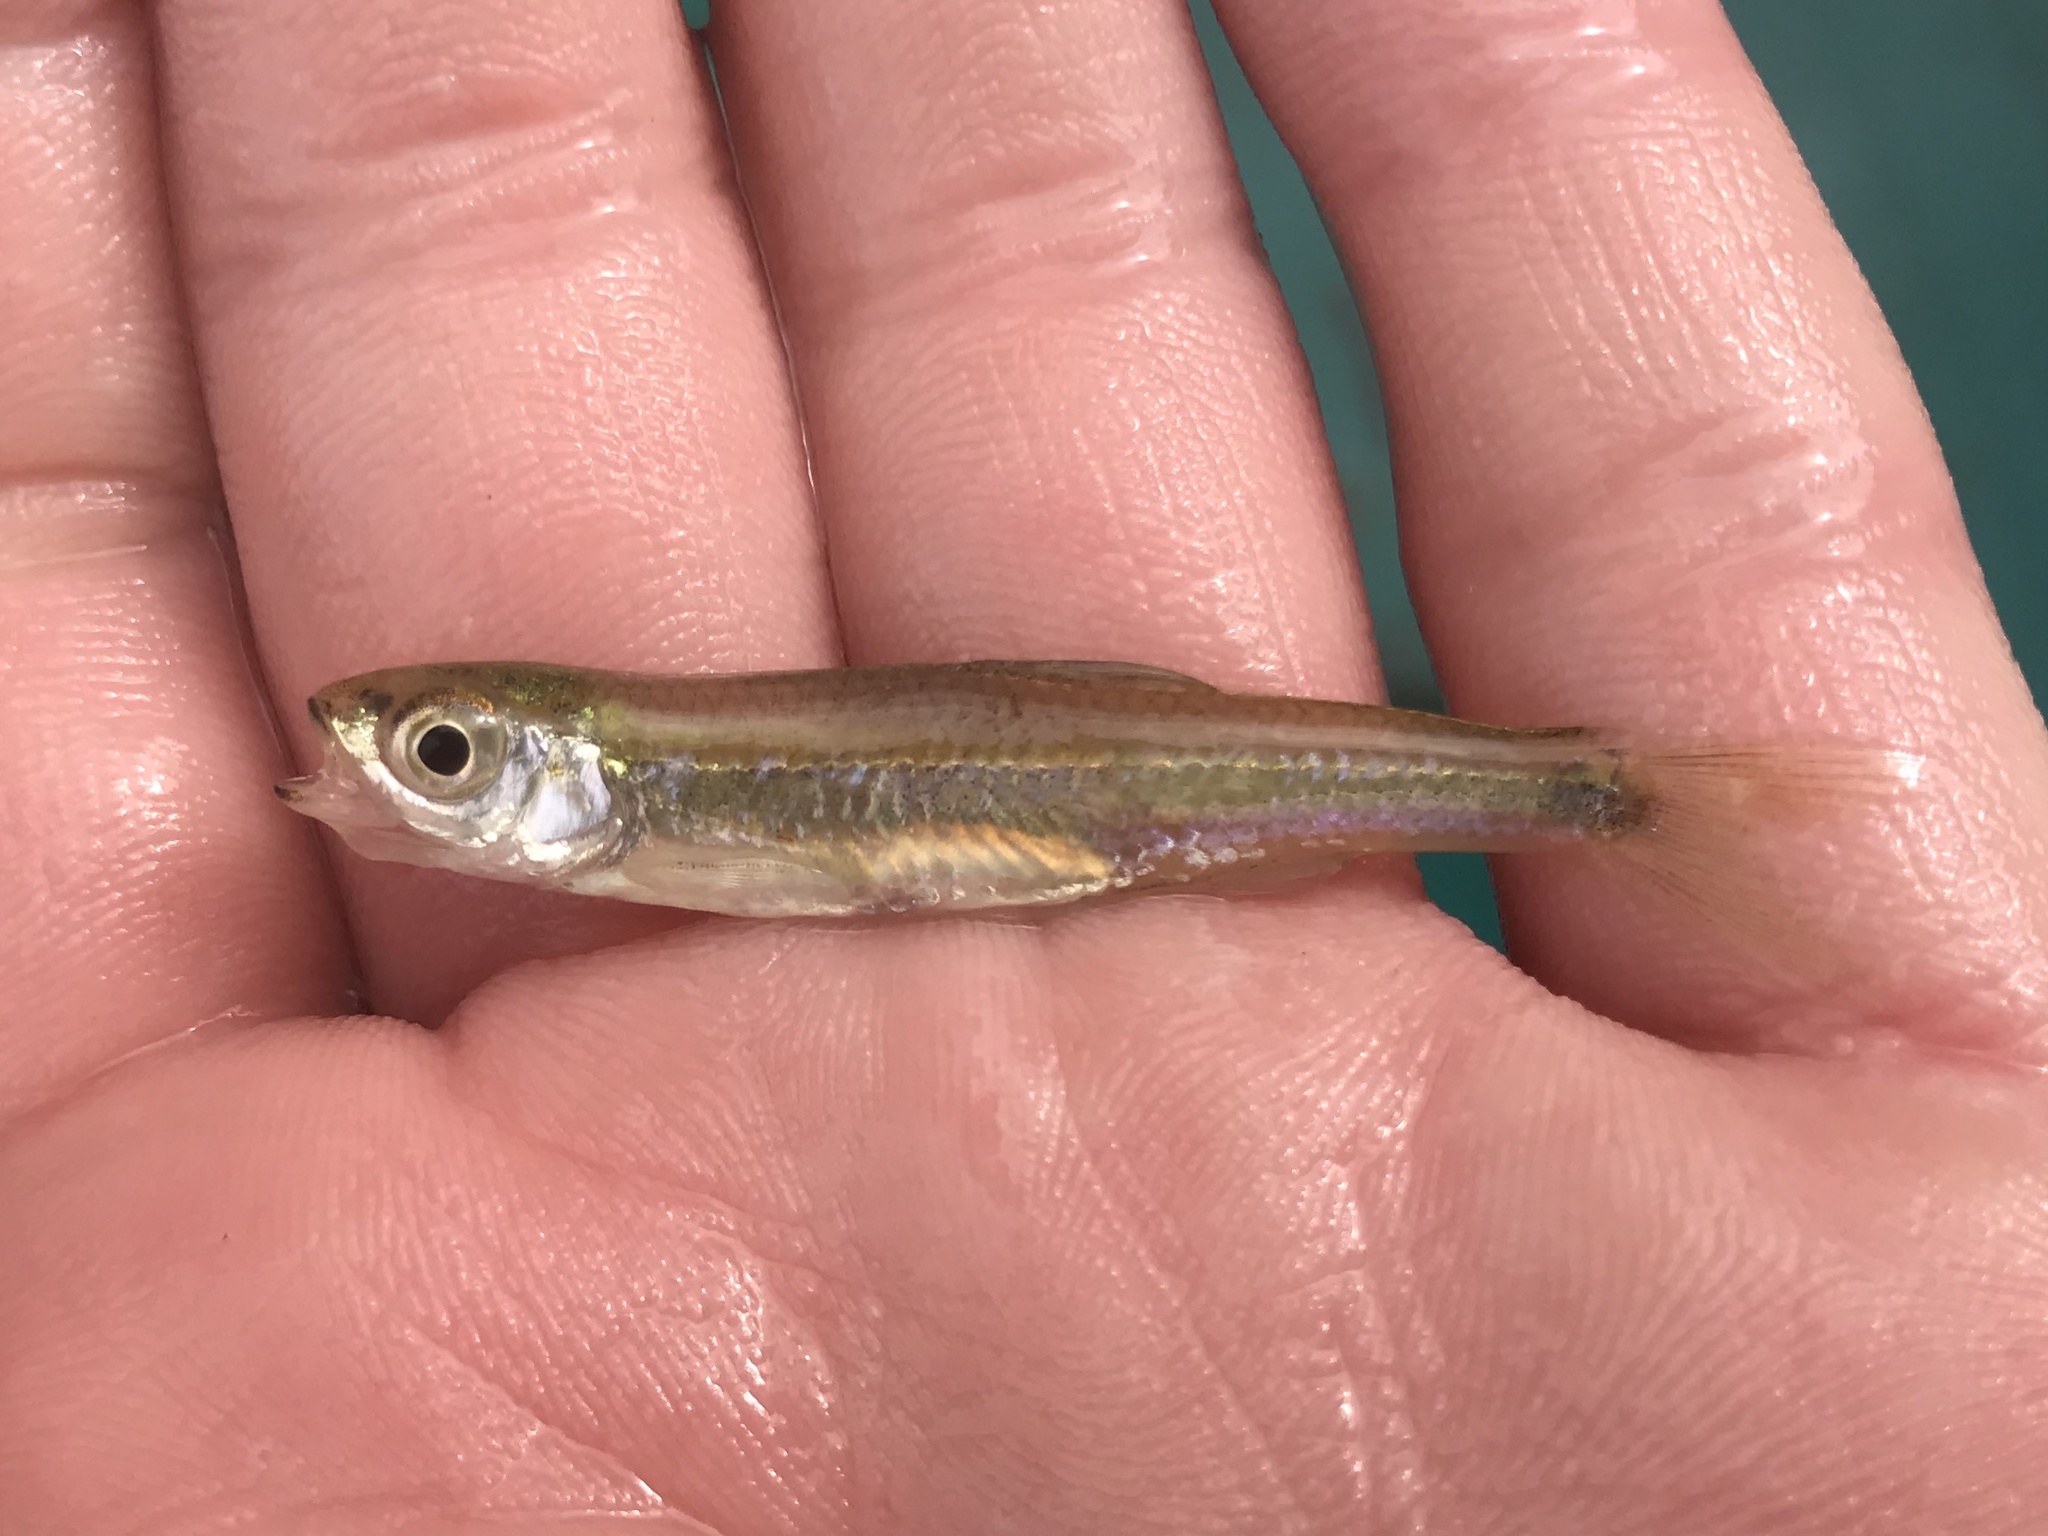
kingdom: Animalia
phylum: Chordata
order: Cypriniformes
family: Cyprinidae
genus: Notropis
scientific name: Notropis amabilis
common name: Texas shiner
